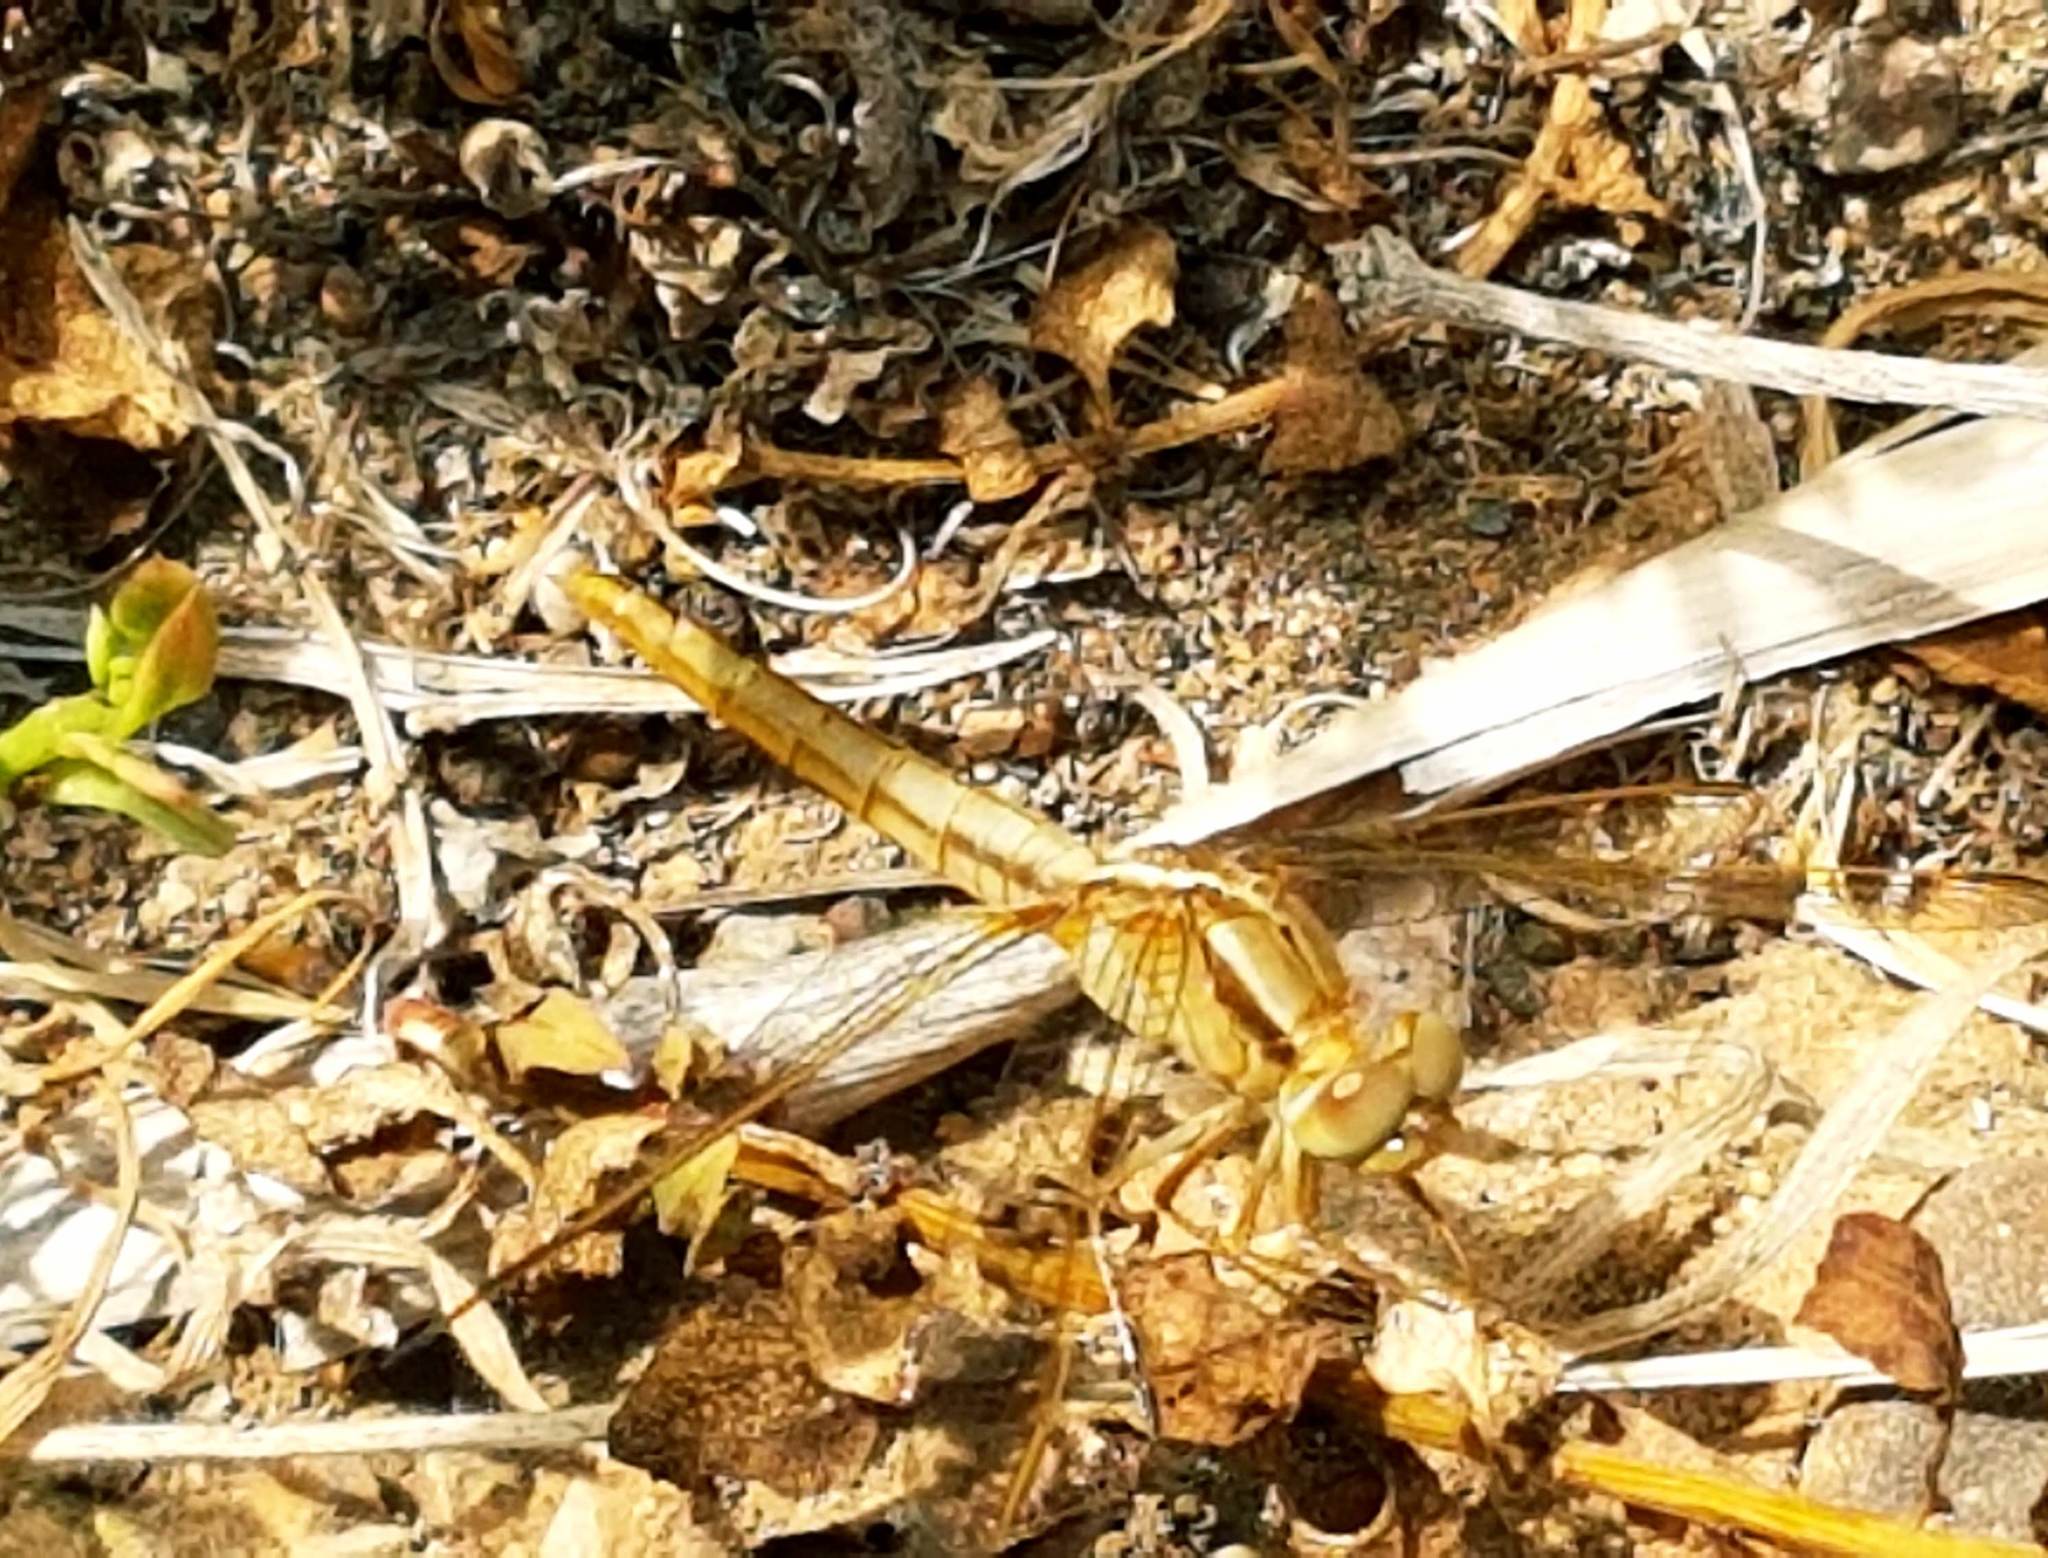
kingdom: Animalia
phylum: Arthropoda
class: Insecta
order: Odonata
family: Libellulidae
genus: Orthetrum
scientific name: Orthetrum chrysostigma
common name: Epaulet skimmer
